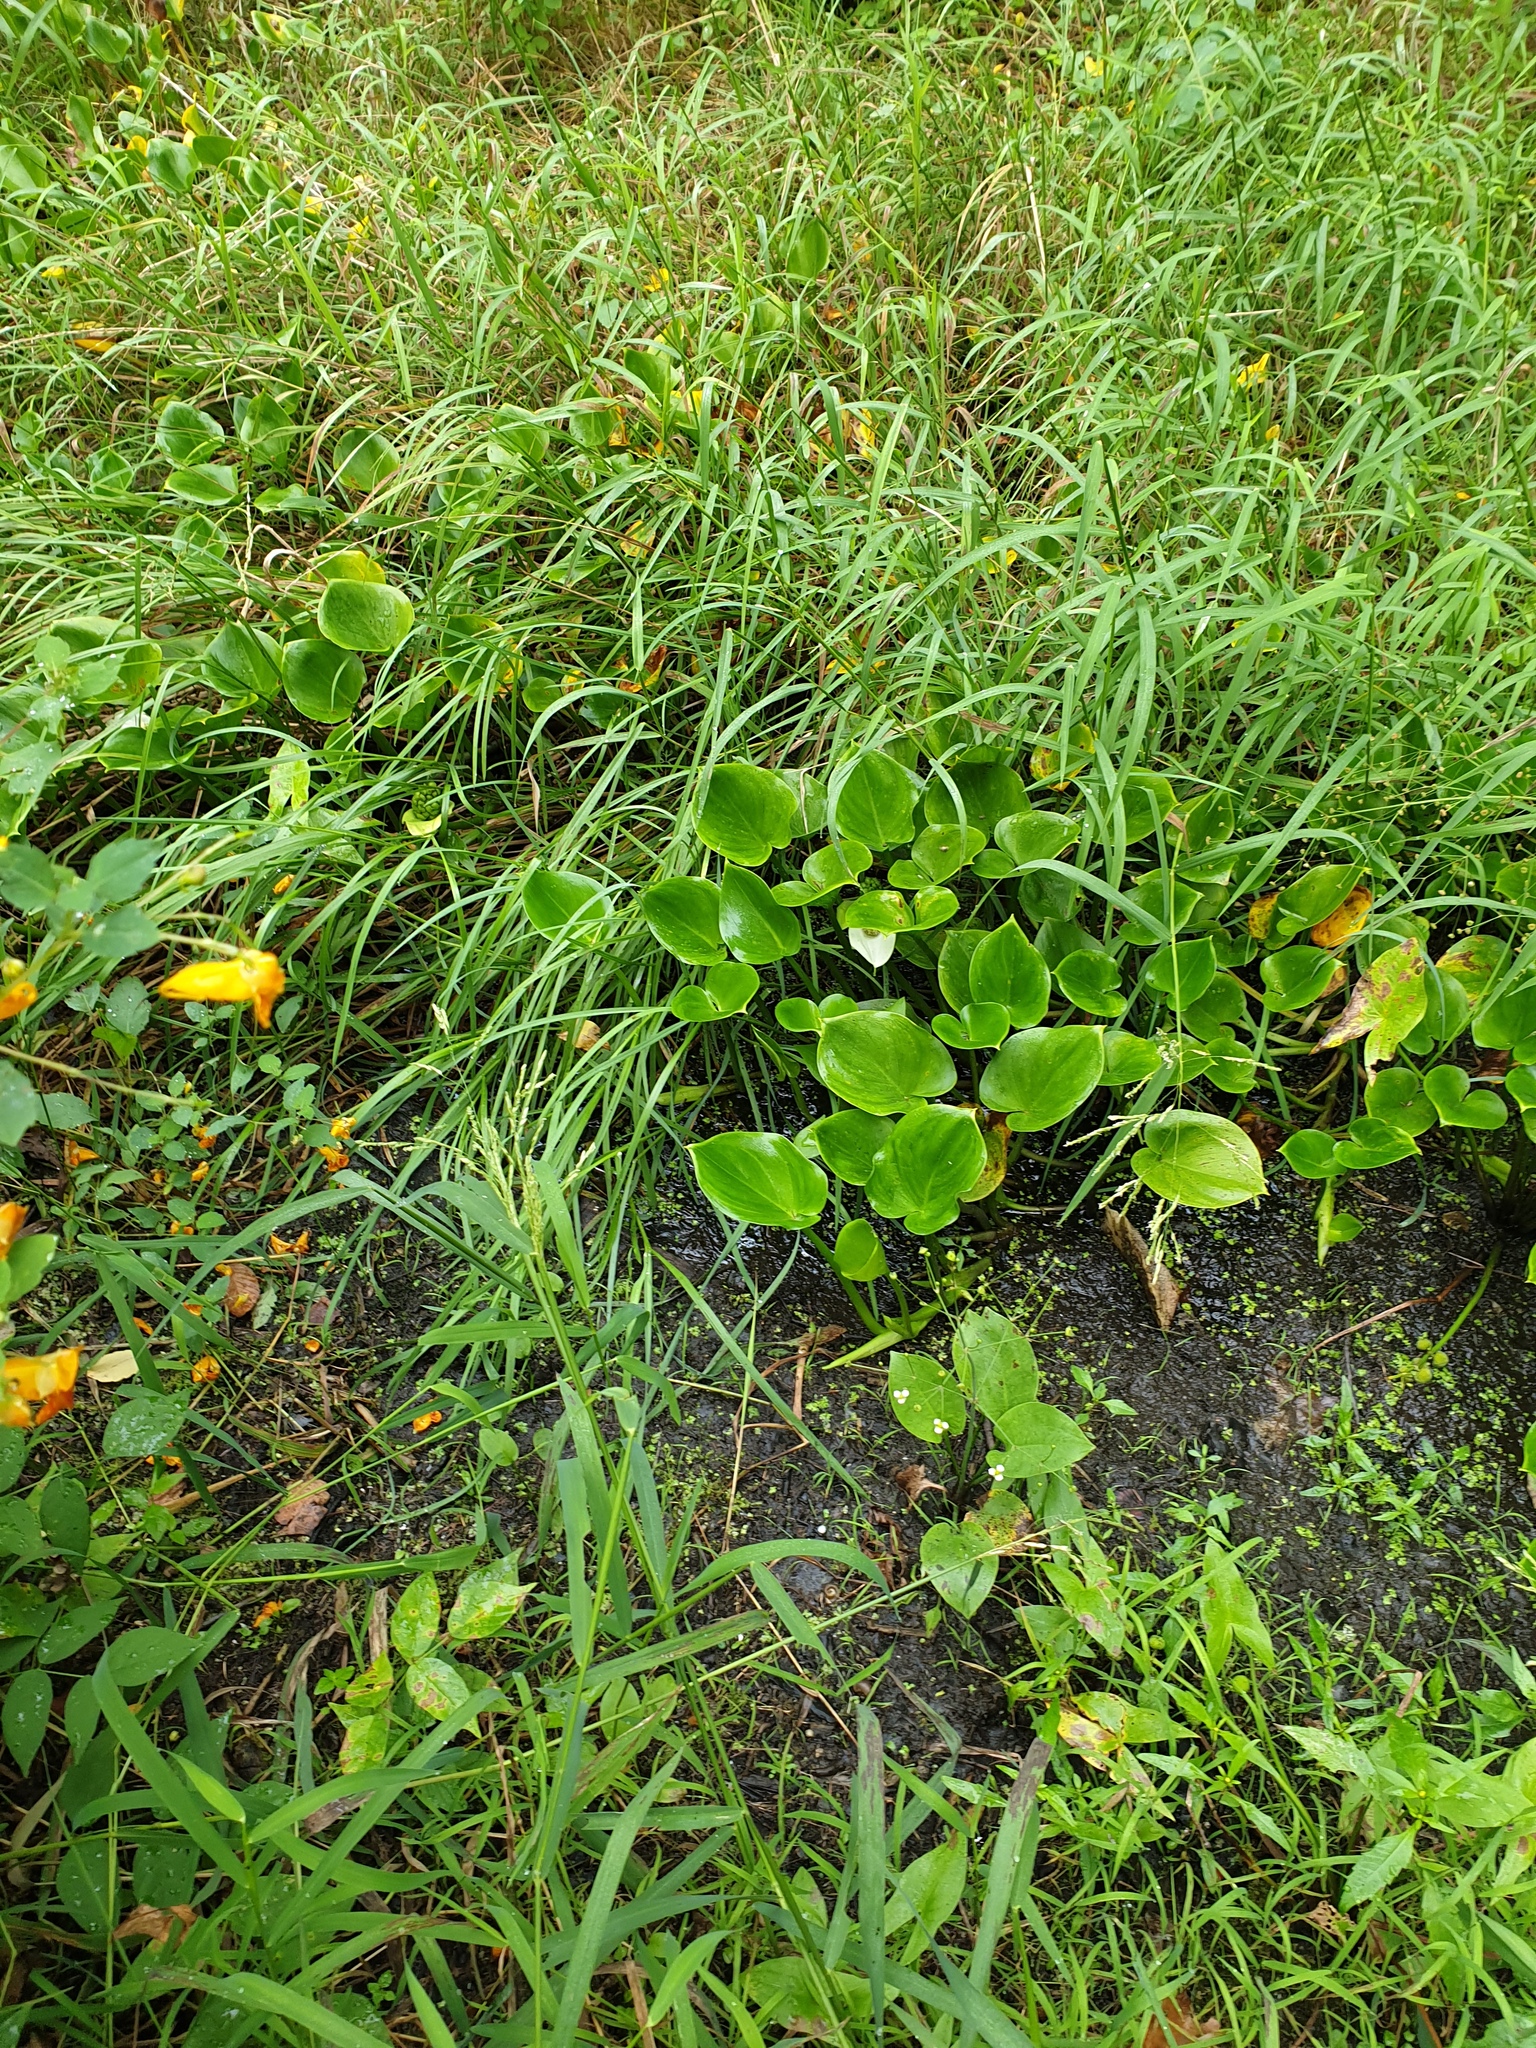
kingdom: Plantae
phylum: Tracheophyta
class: Liliopsida
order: Alismatales
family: Araceae
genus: Calla
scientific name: Calla palustris
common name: Bog arum
